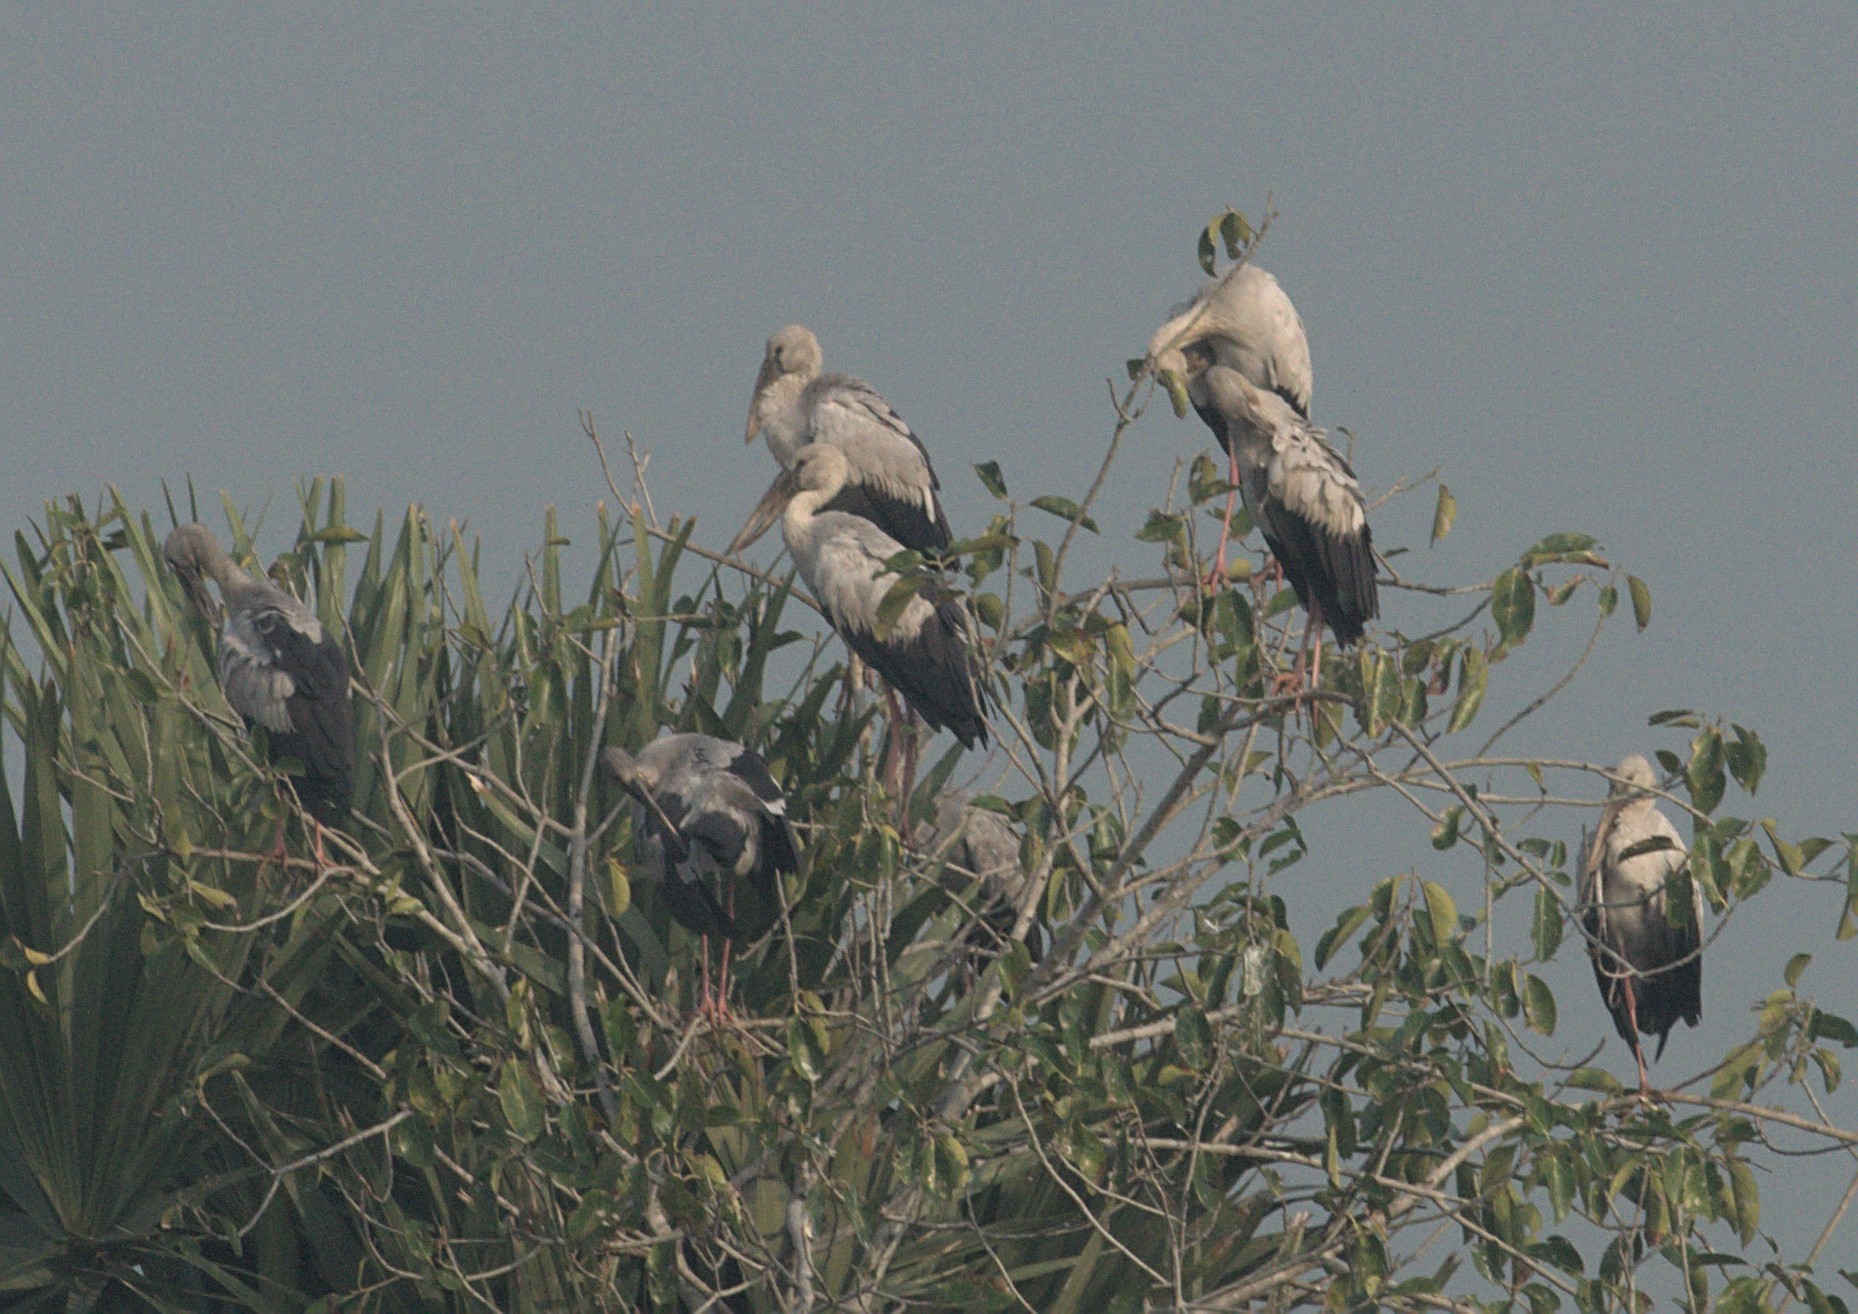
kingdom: Animalia
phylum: Chordata
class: Aves
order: Ciconiiformes
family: Ciconiidae
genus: Anastomus
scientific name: Anastomus oscitans
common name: Asian openbill
